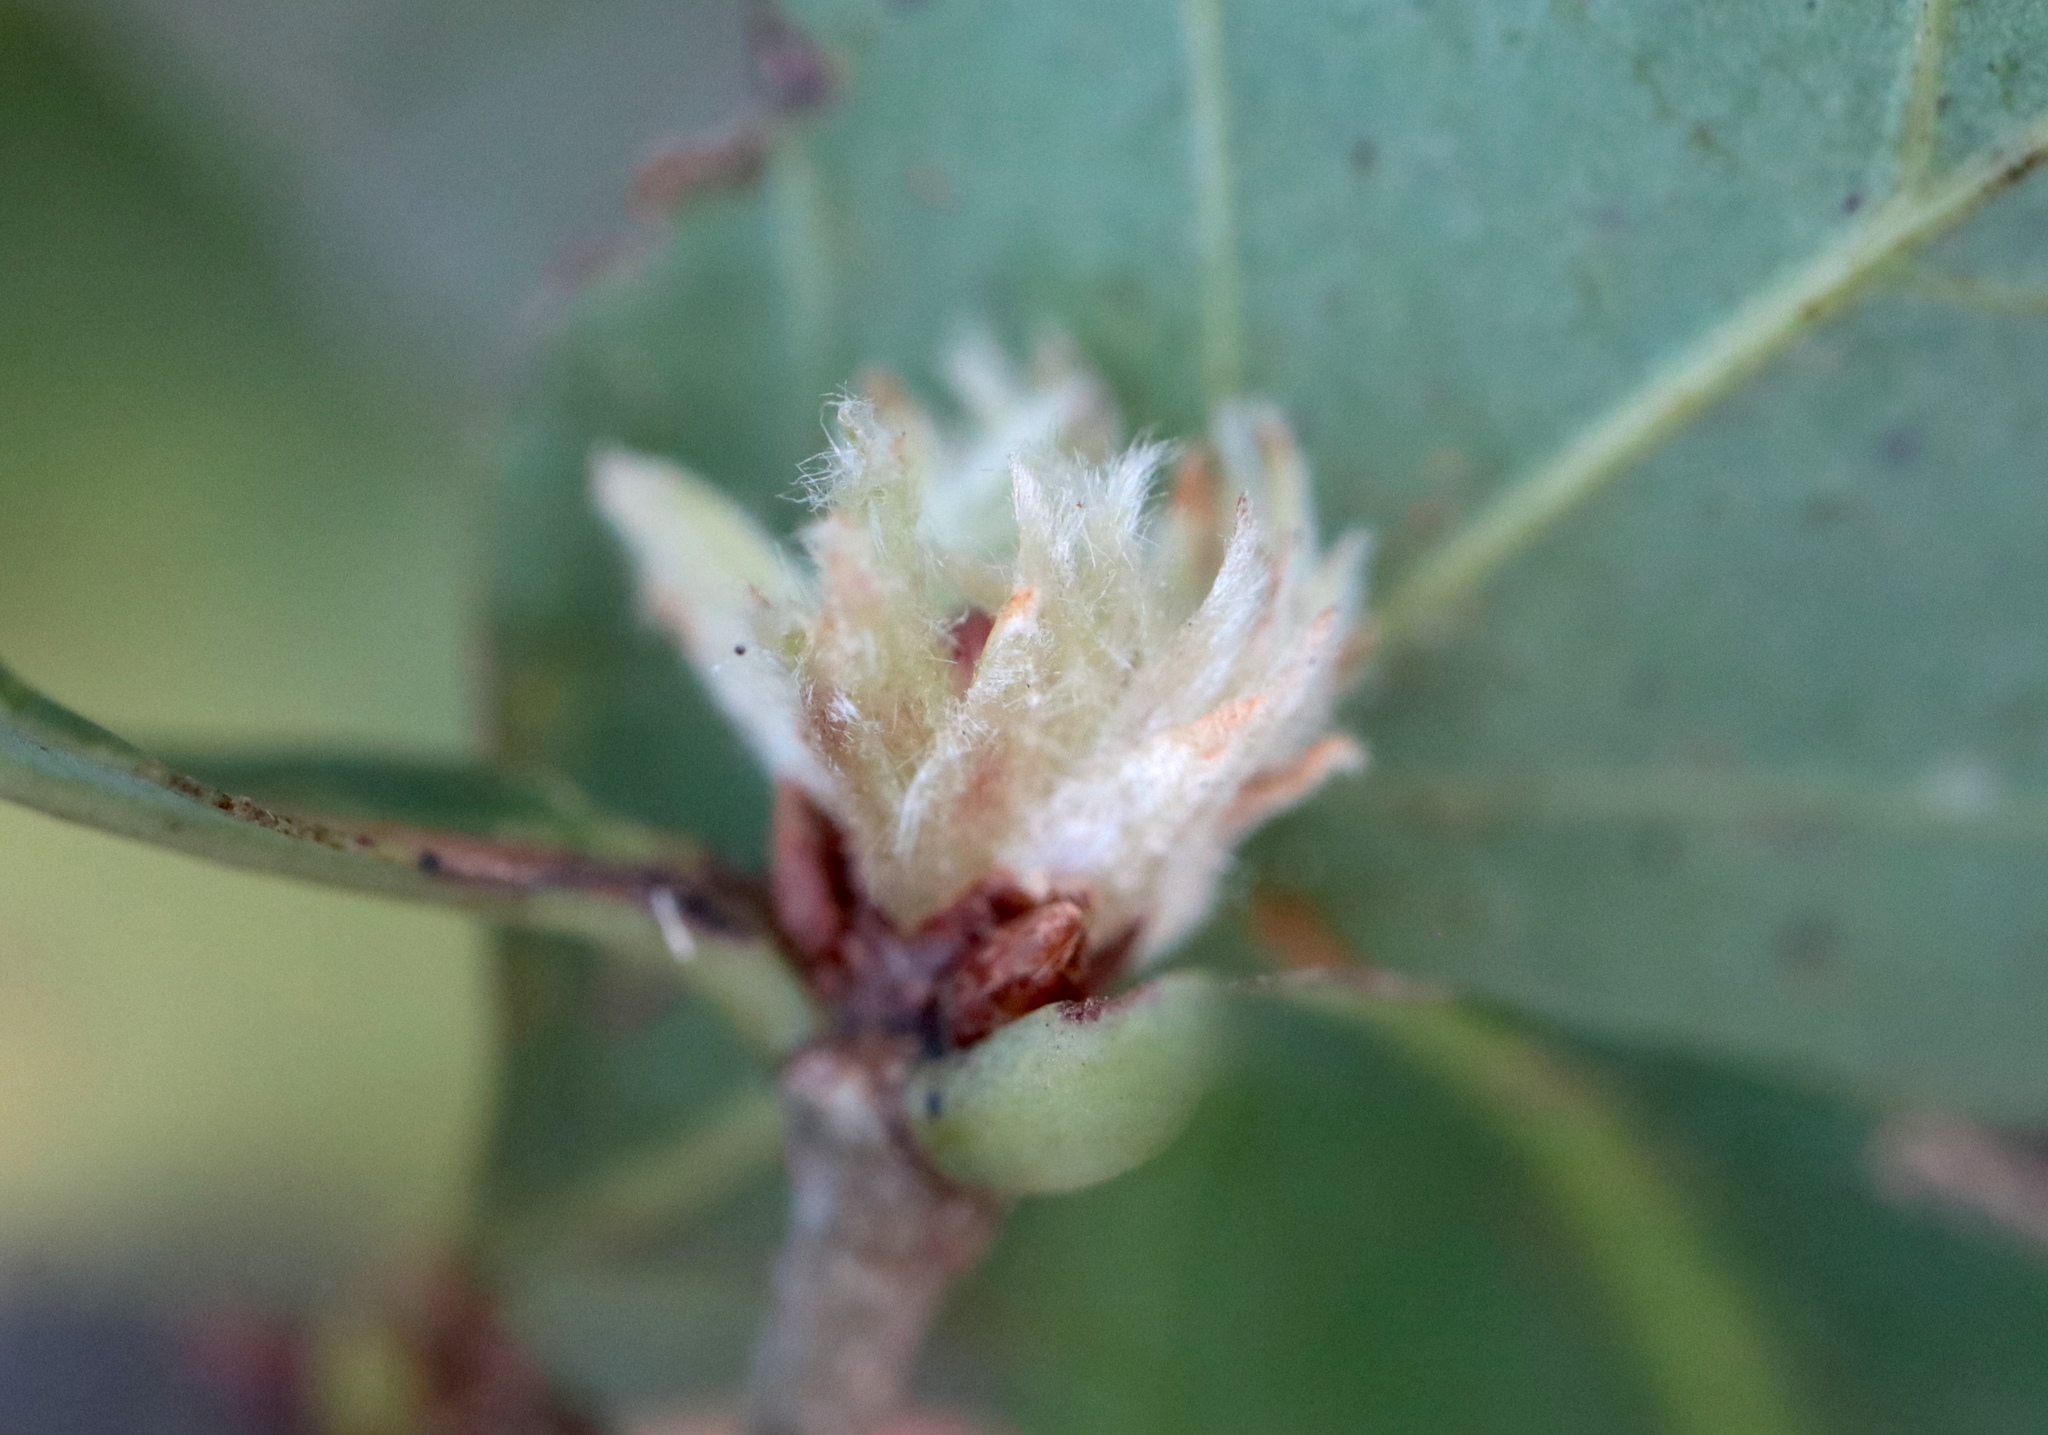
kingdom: Animalia
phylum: Arthropoda
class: Insecta
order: Hymenoptera
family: Cynipidae
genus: Andricus
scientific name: Andricus
